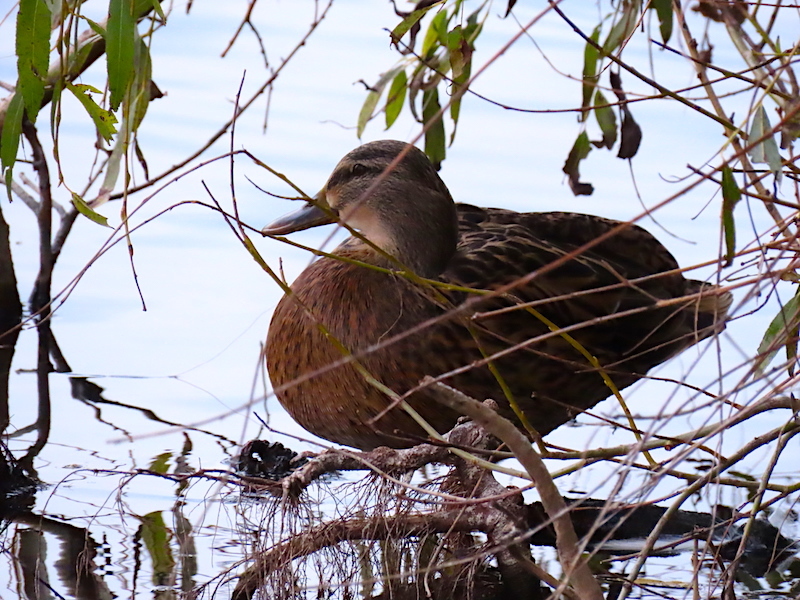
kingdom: Animalia
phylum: Chordata
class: Aves
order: Anseriformes
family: Anatidae
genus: Anas
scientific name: Anas platyrhynchos
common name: Mallard
